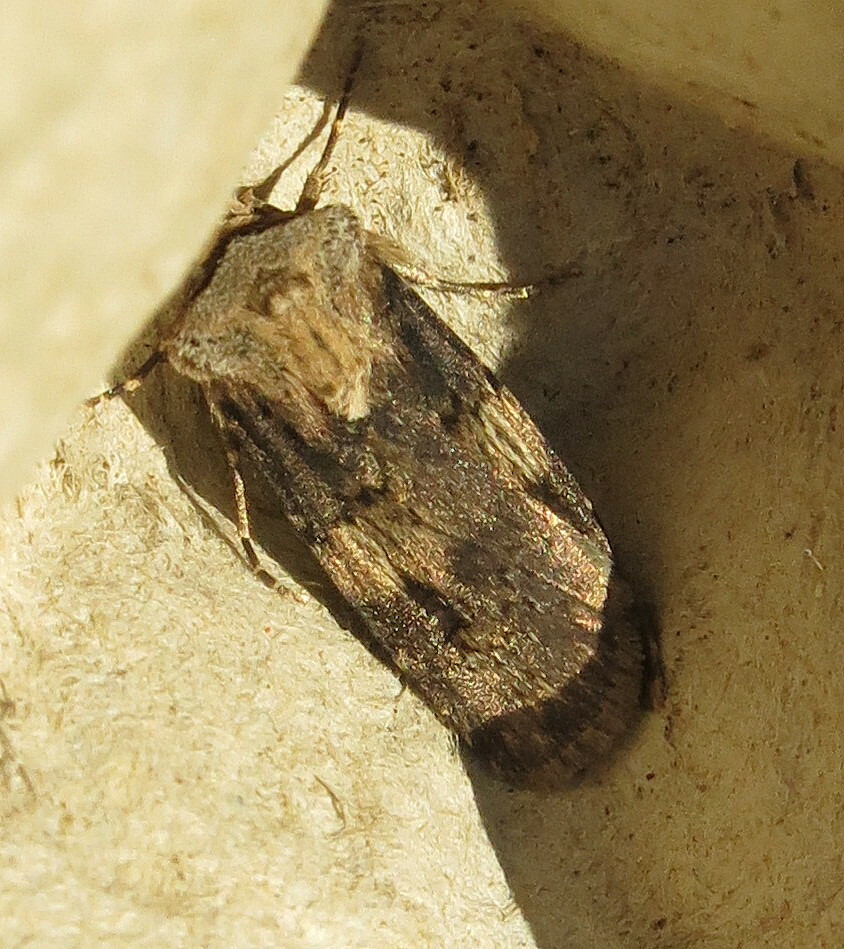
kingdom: Animalia
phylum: Arthropoda
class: Insecta
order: Lepidoptera
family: Noctuidae
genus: Agrotis
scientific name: Agrotis puta
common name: Shuttle-shaped dart
